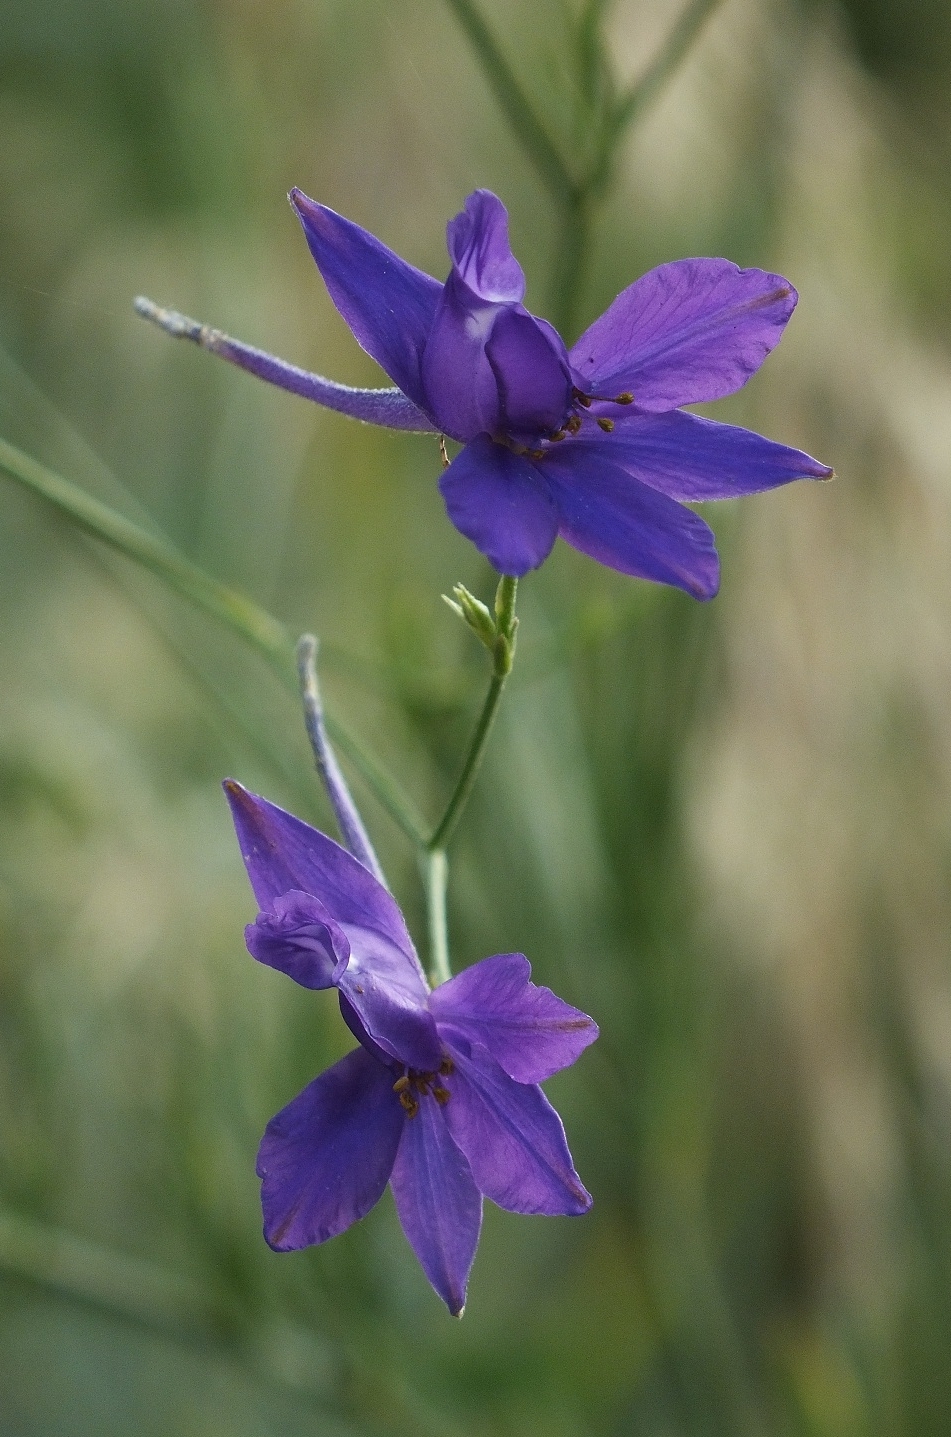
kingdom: Plantae
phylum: Tracheophyta
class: Magnoliopsida
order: Ranunculales
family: Ranunculaceae
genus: Delphinium
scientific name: Delphinium consolida
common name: Branching larkspur
